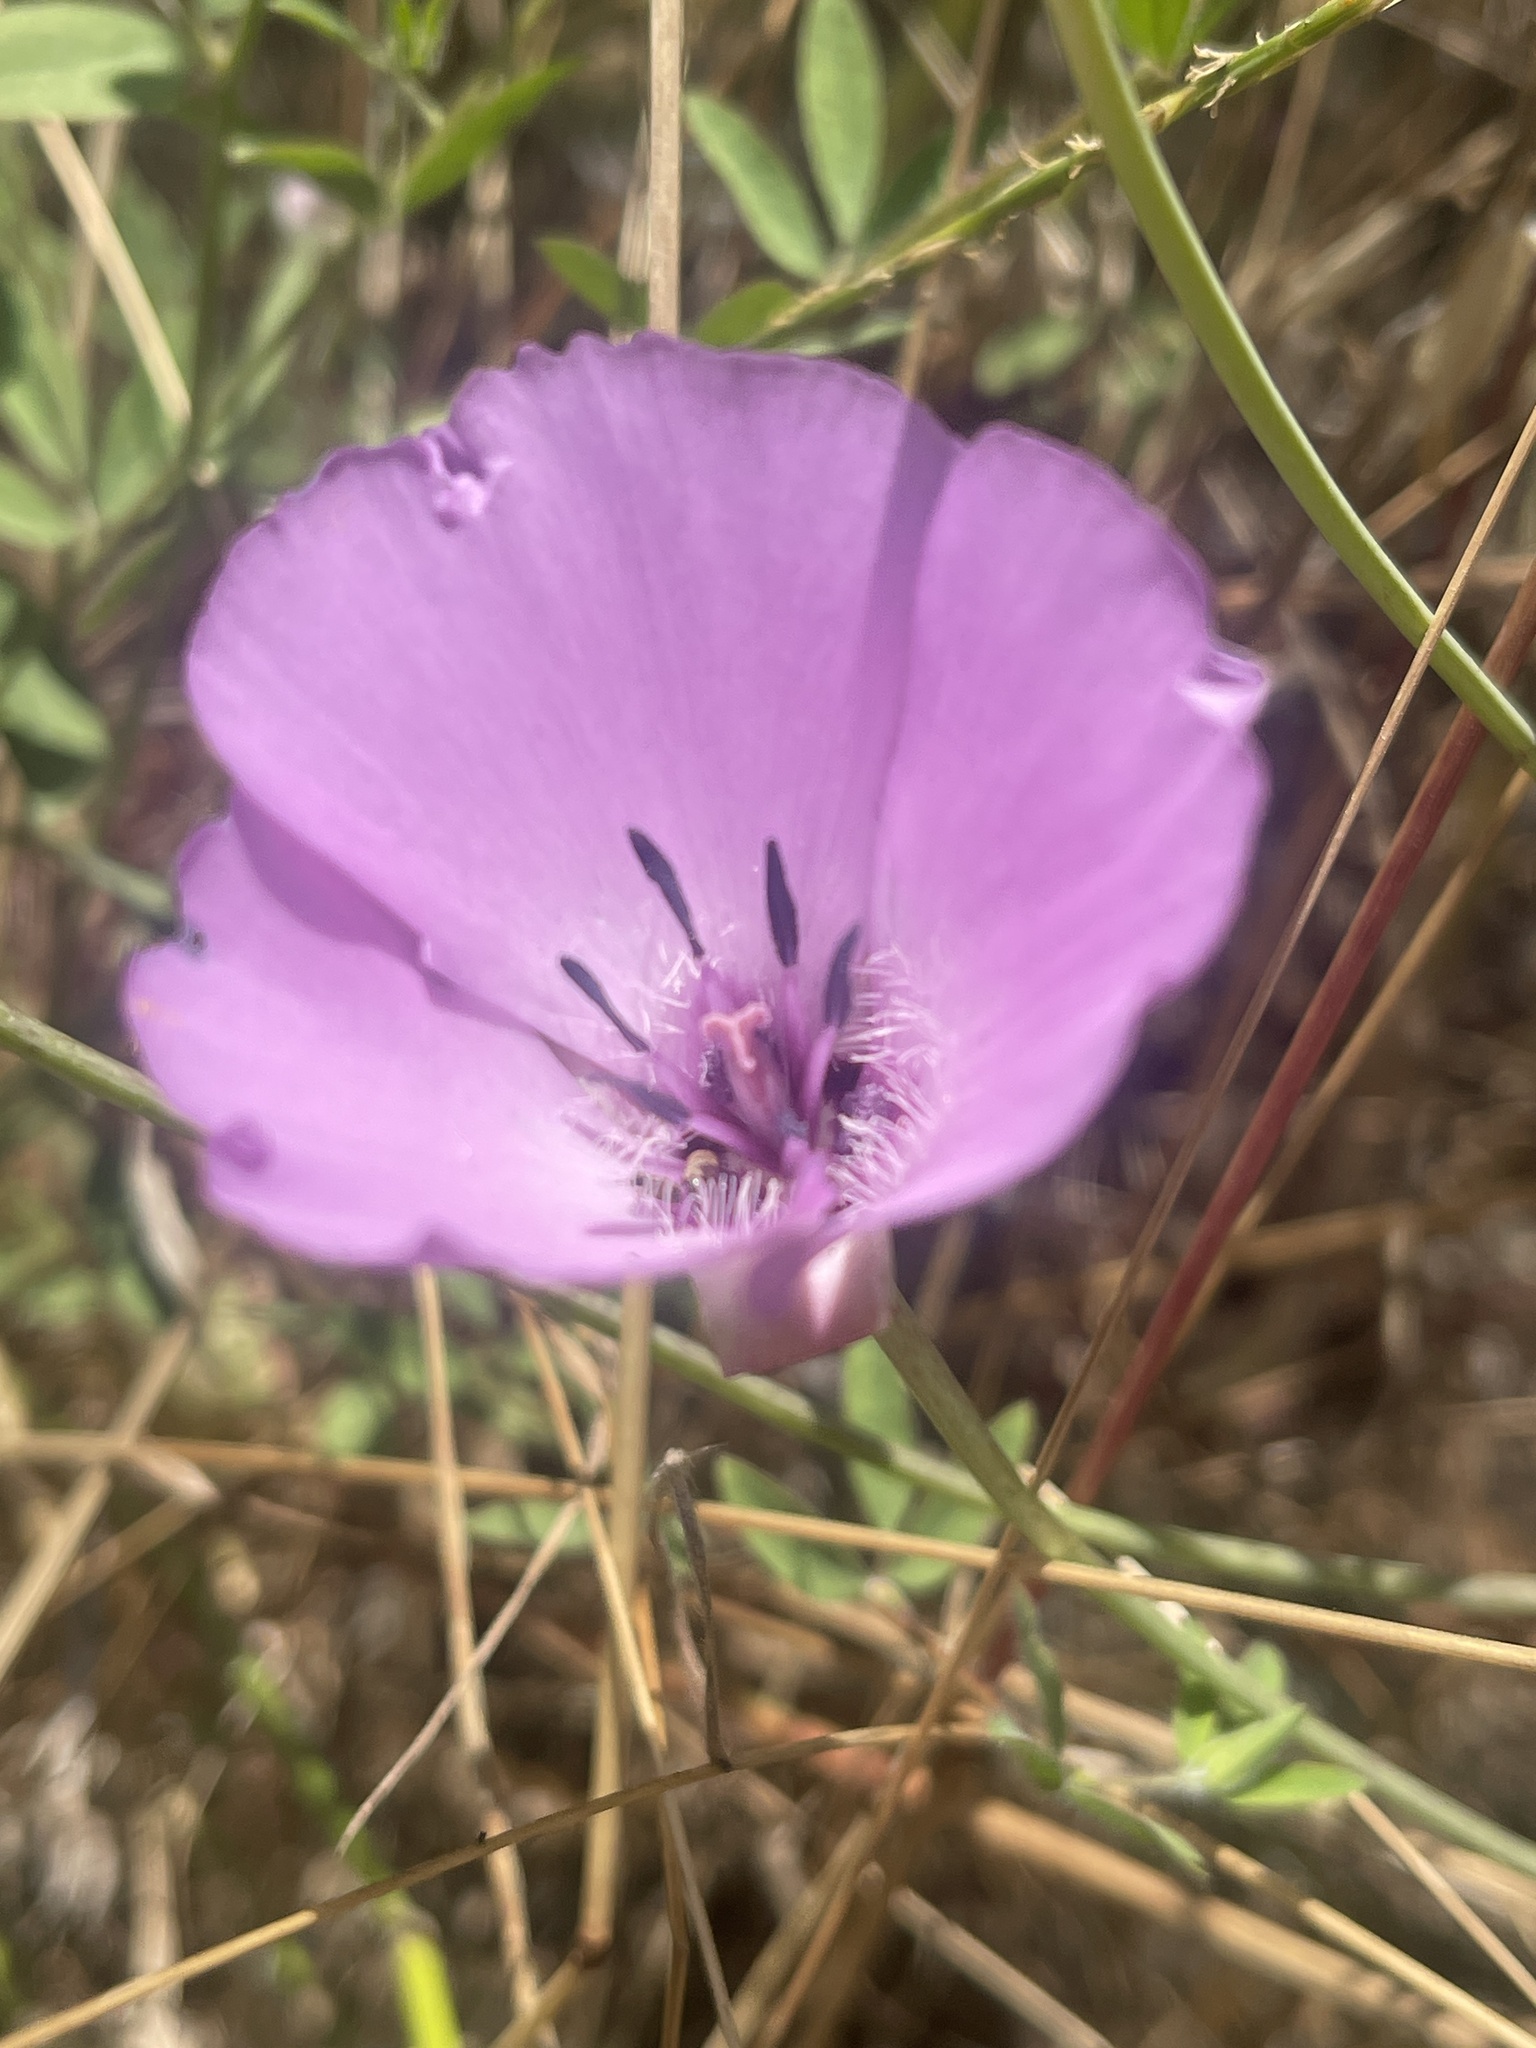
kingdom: Plantae
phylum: Tracheophyta
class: Liliopsida
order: Liliales
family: Liliaceae
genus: Calochortus
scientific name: Calochortus splendens
